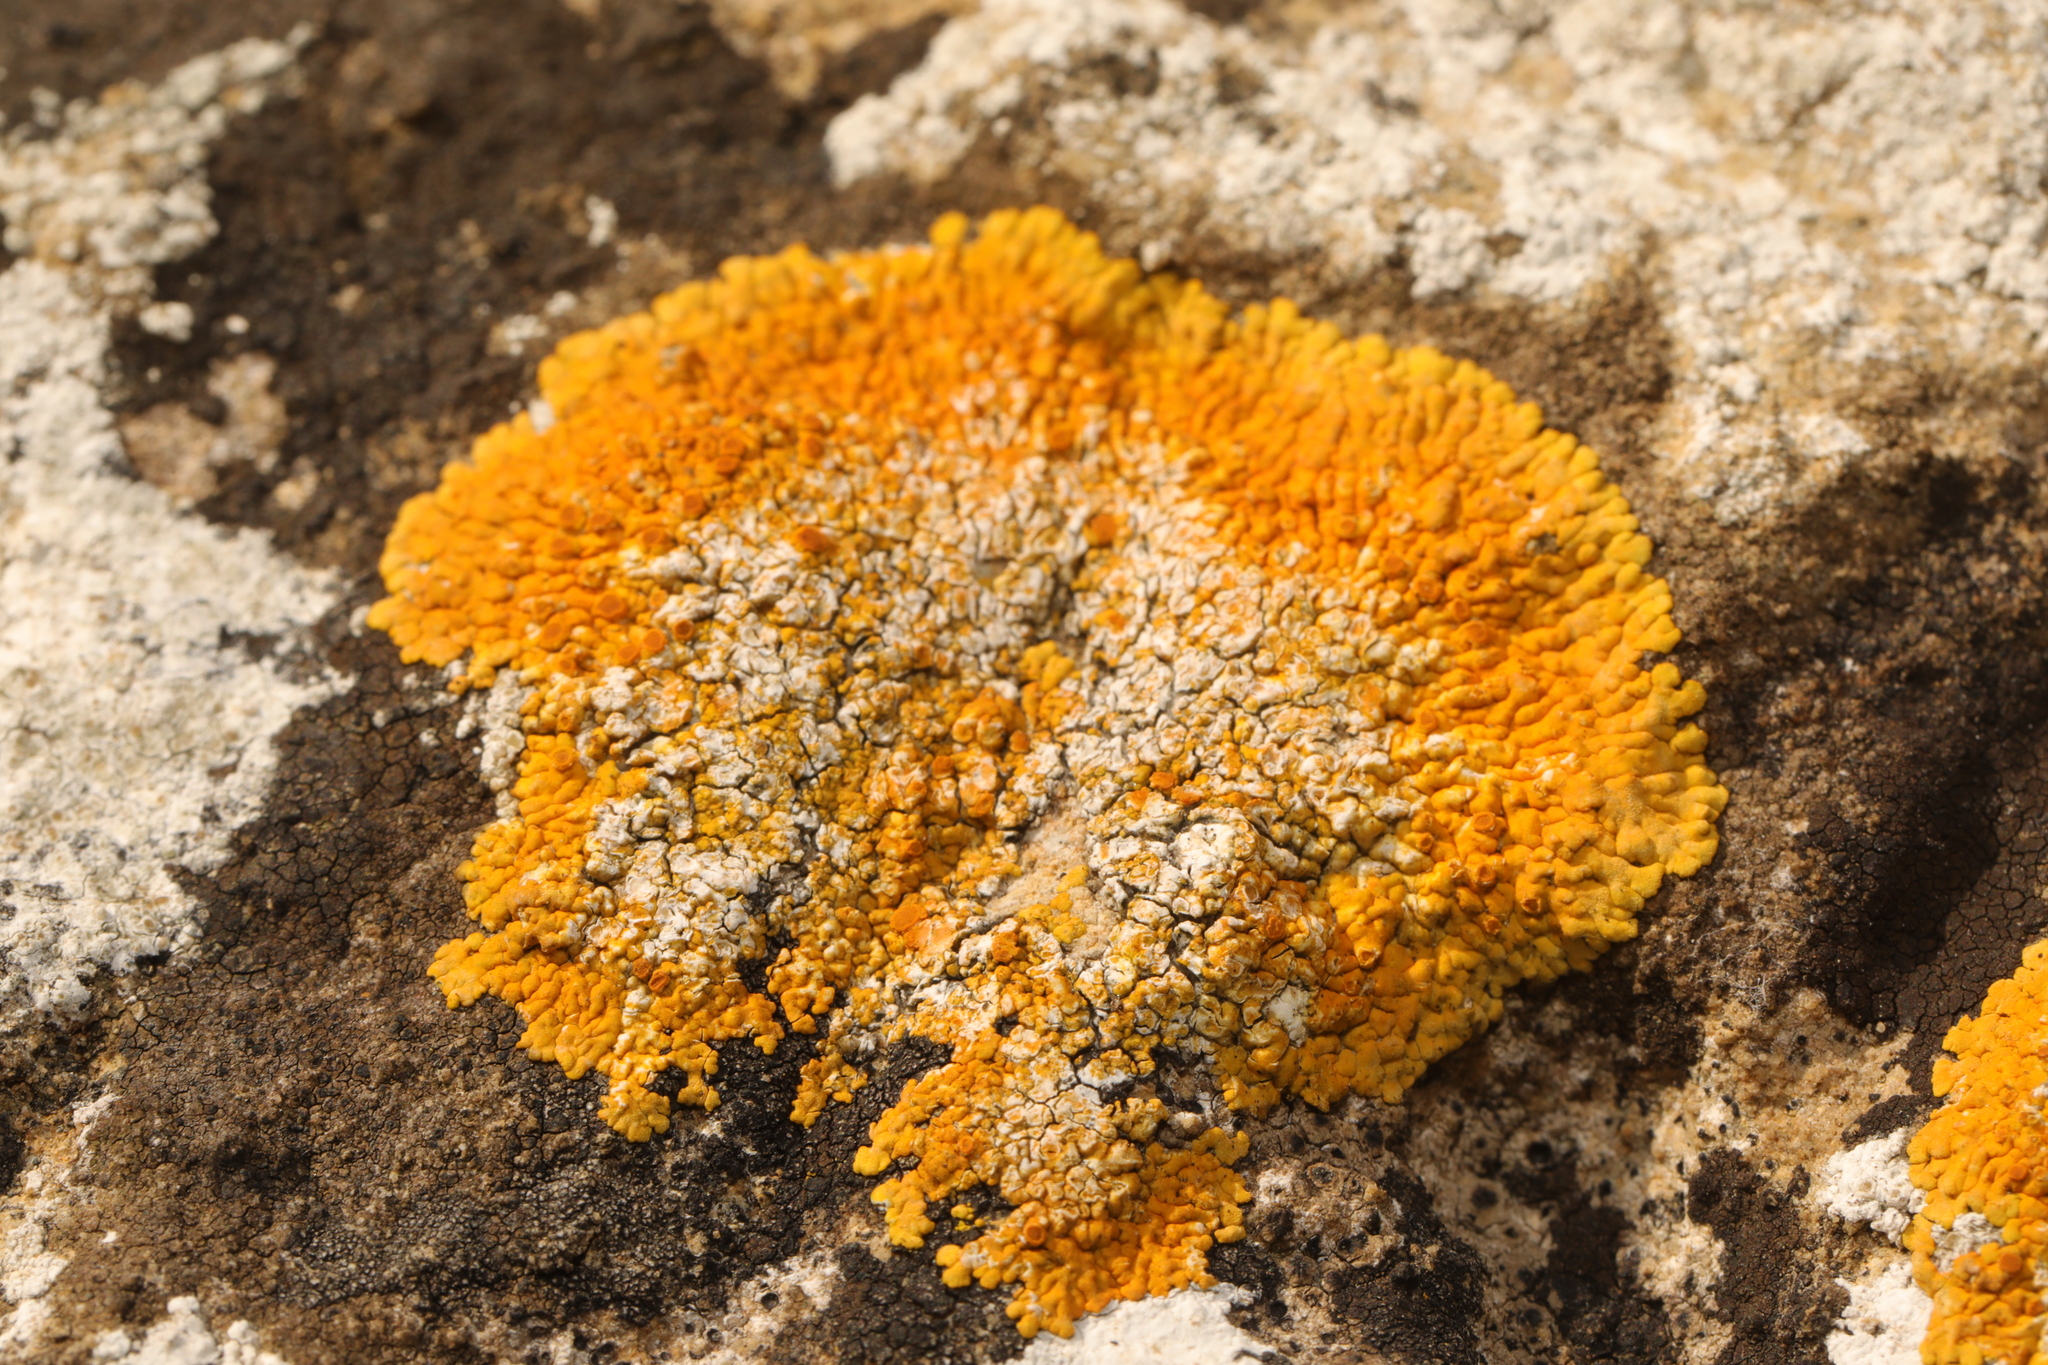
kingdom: Fungi
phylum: Ascomycota
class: Lecanoromycetes
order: Teloschistales
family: Teloschistaceae
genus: Variospora
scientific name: Variospora flavescens
